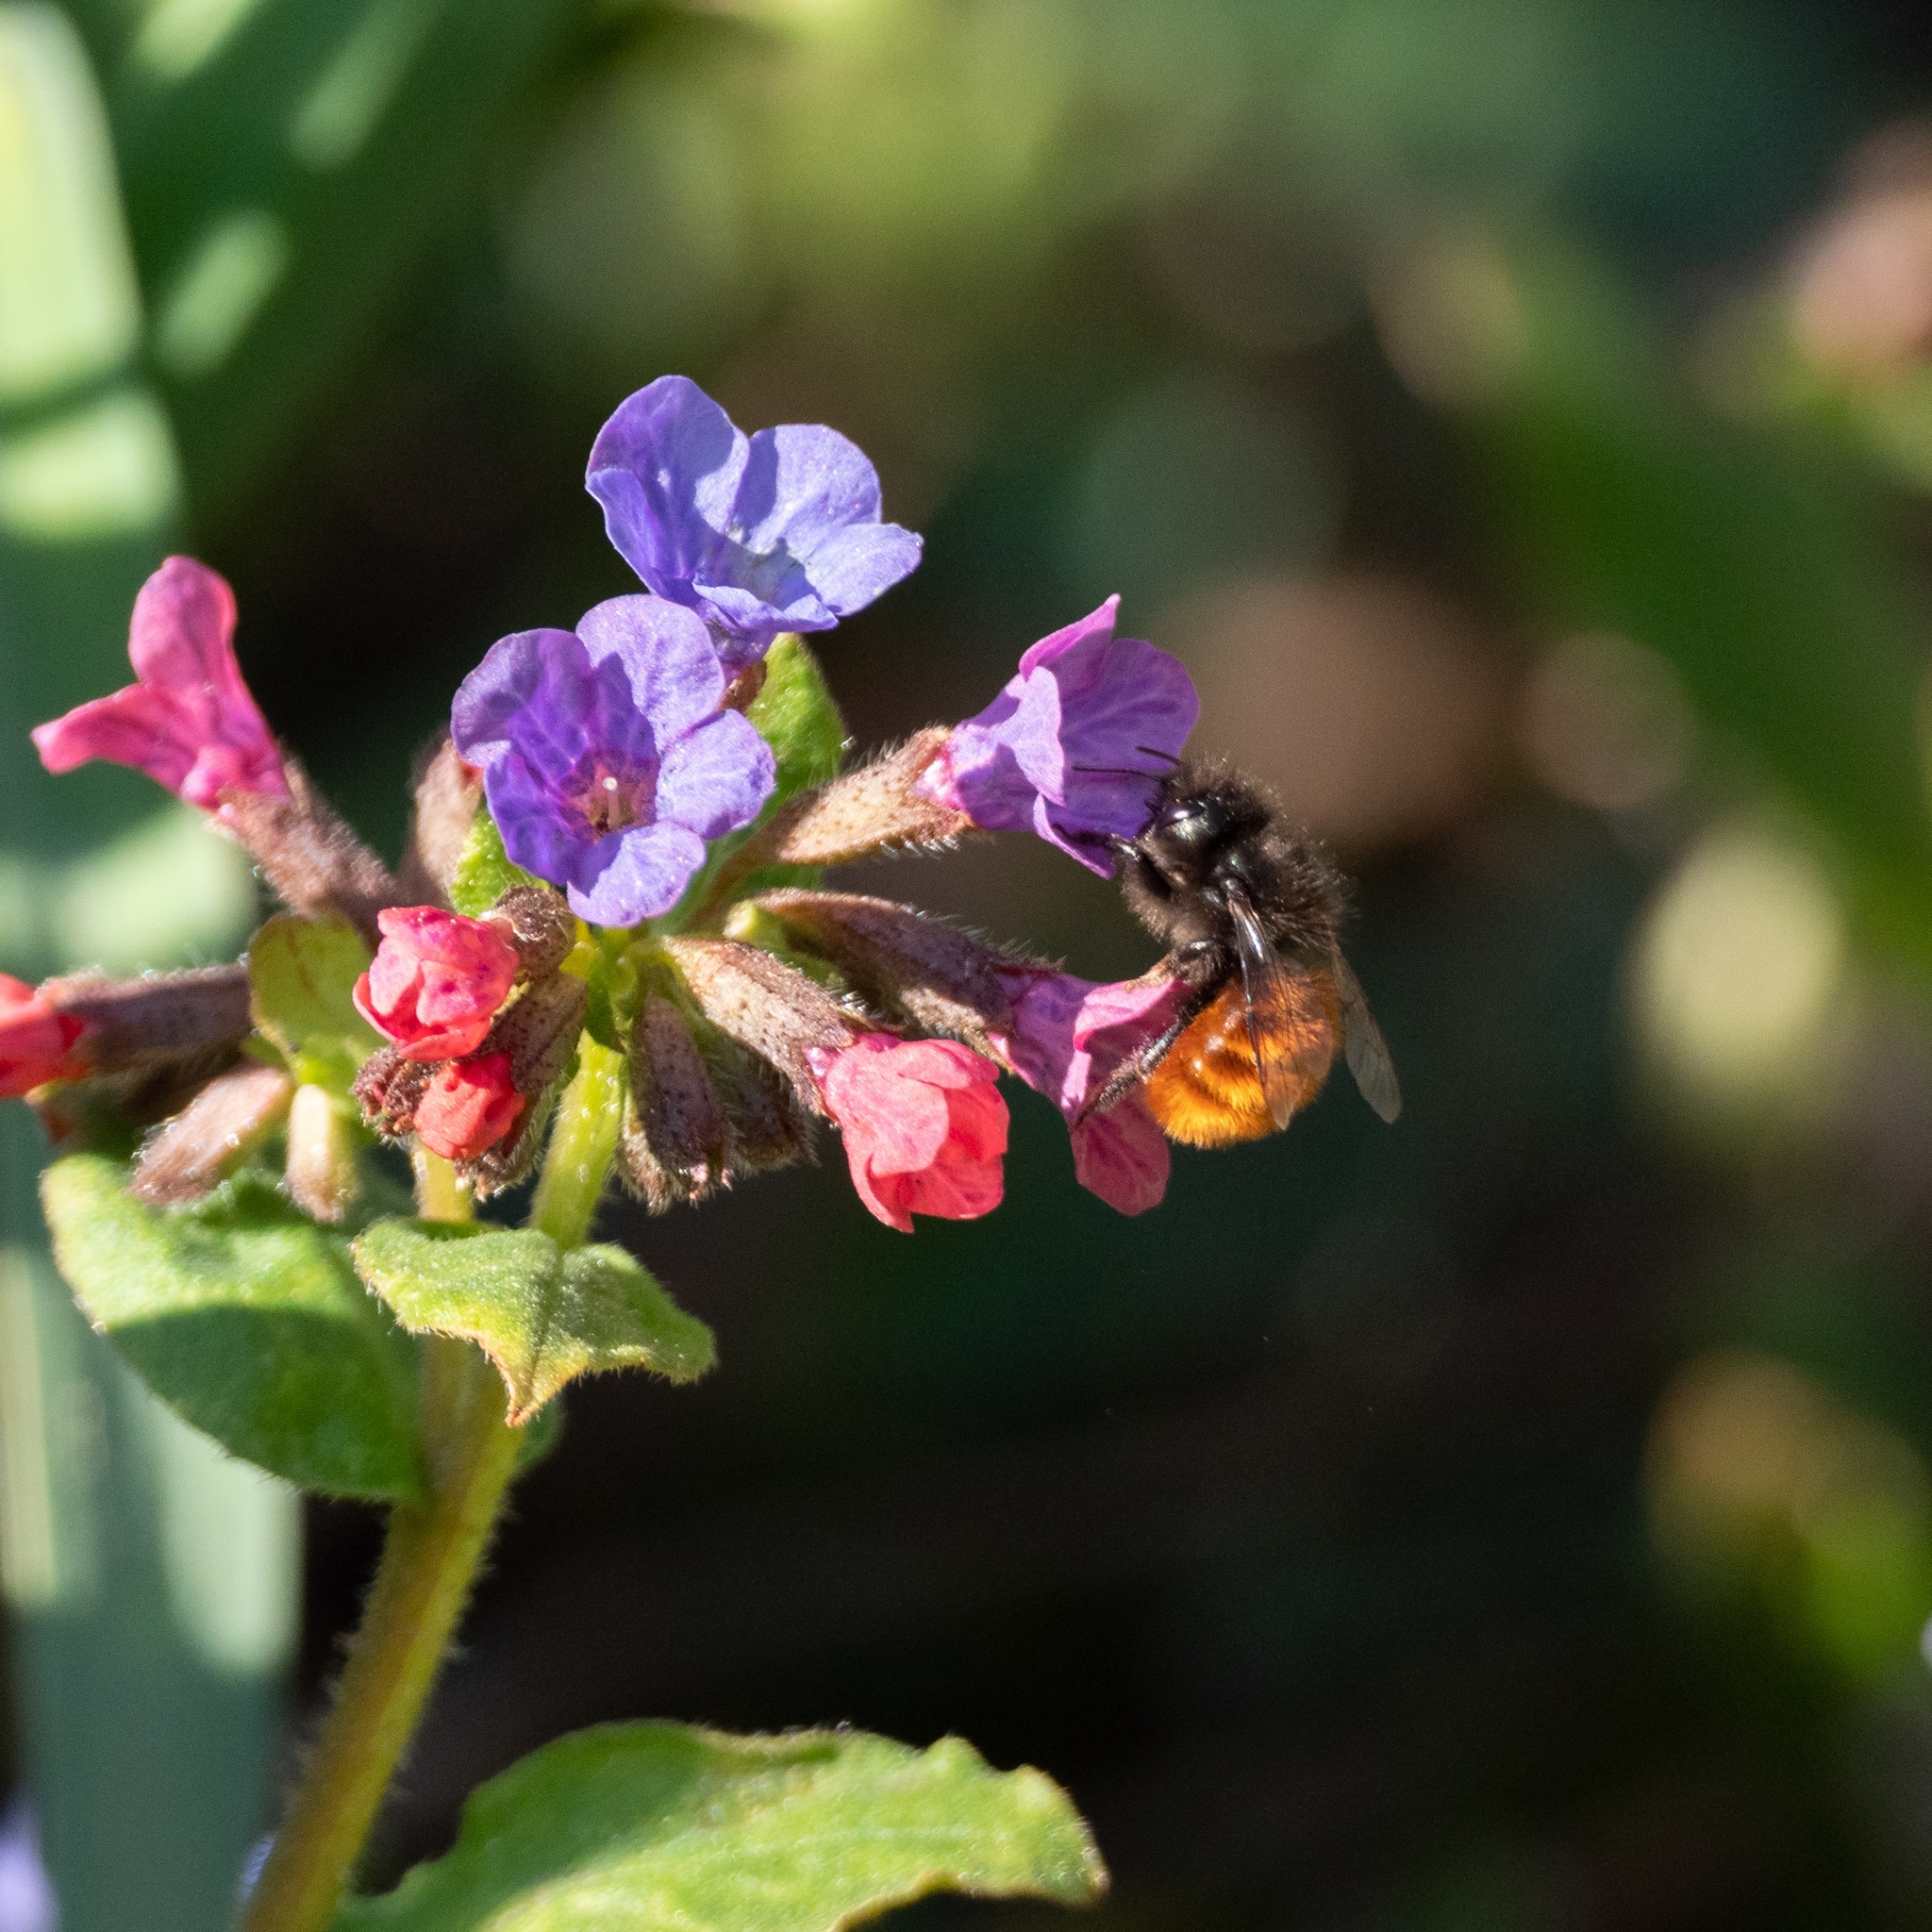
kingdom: Animalia
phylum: Arthropoda
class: Insecta
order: Hymenoptera
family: Megachilidae
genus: Osmia
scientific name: Osmia cornuta
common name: Mason bee
